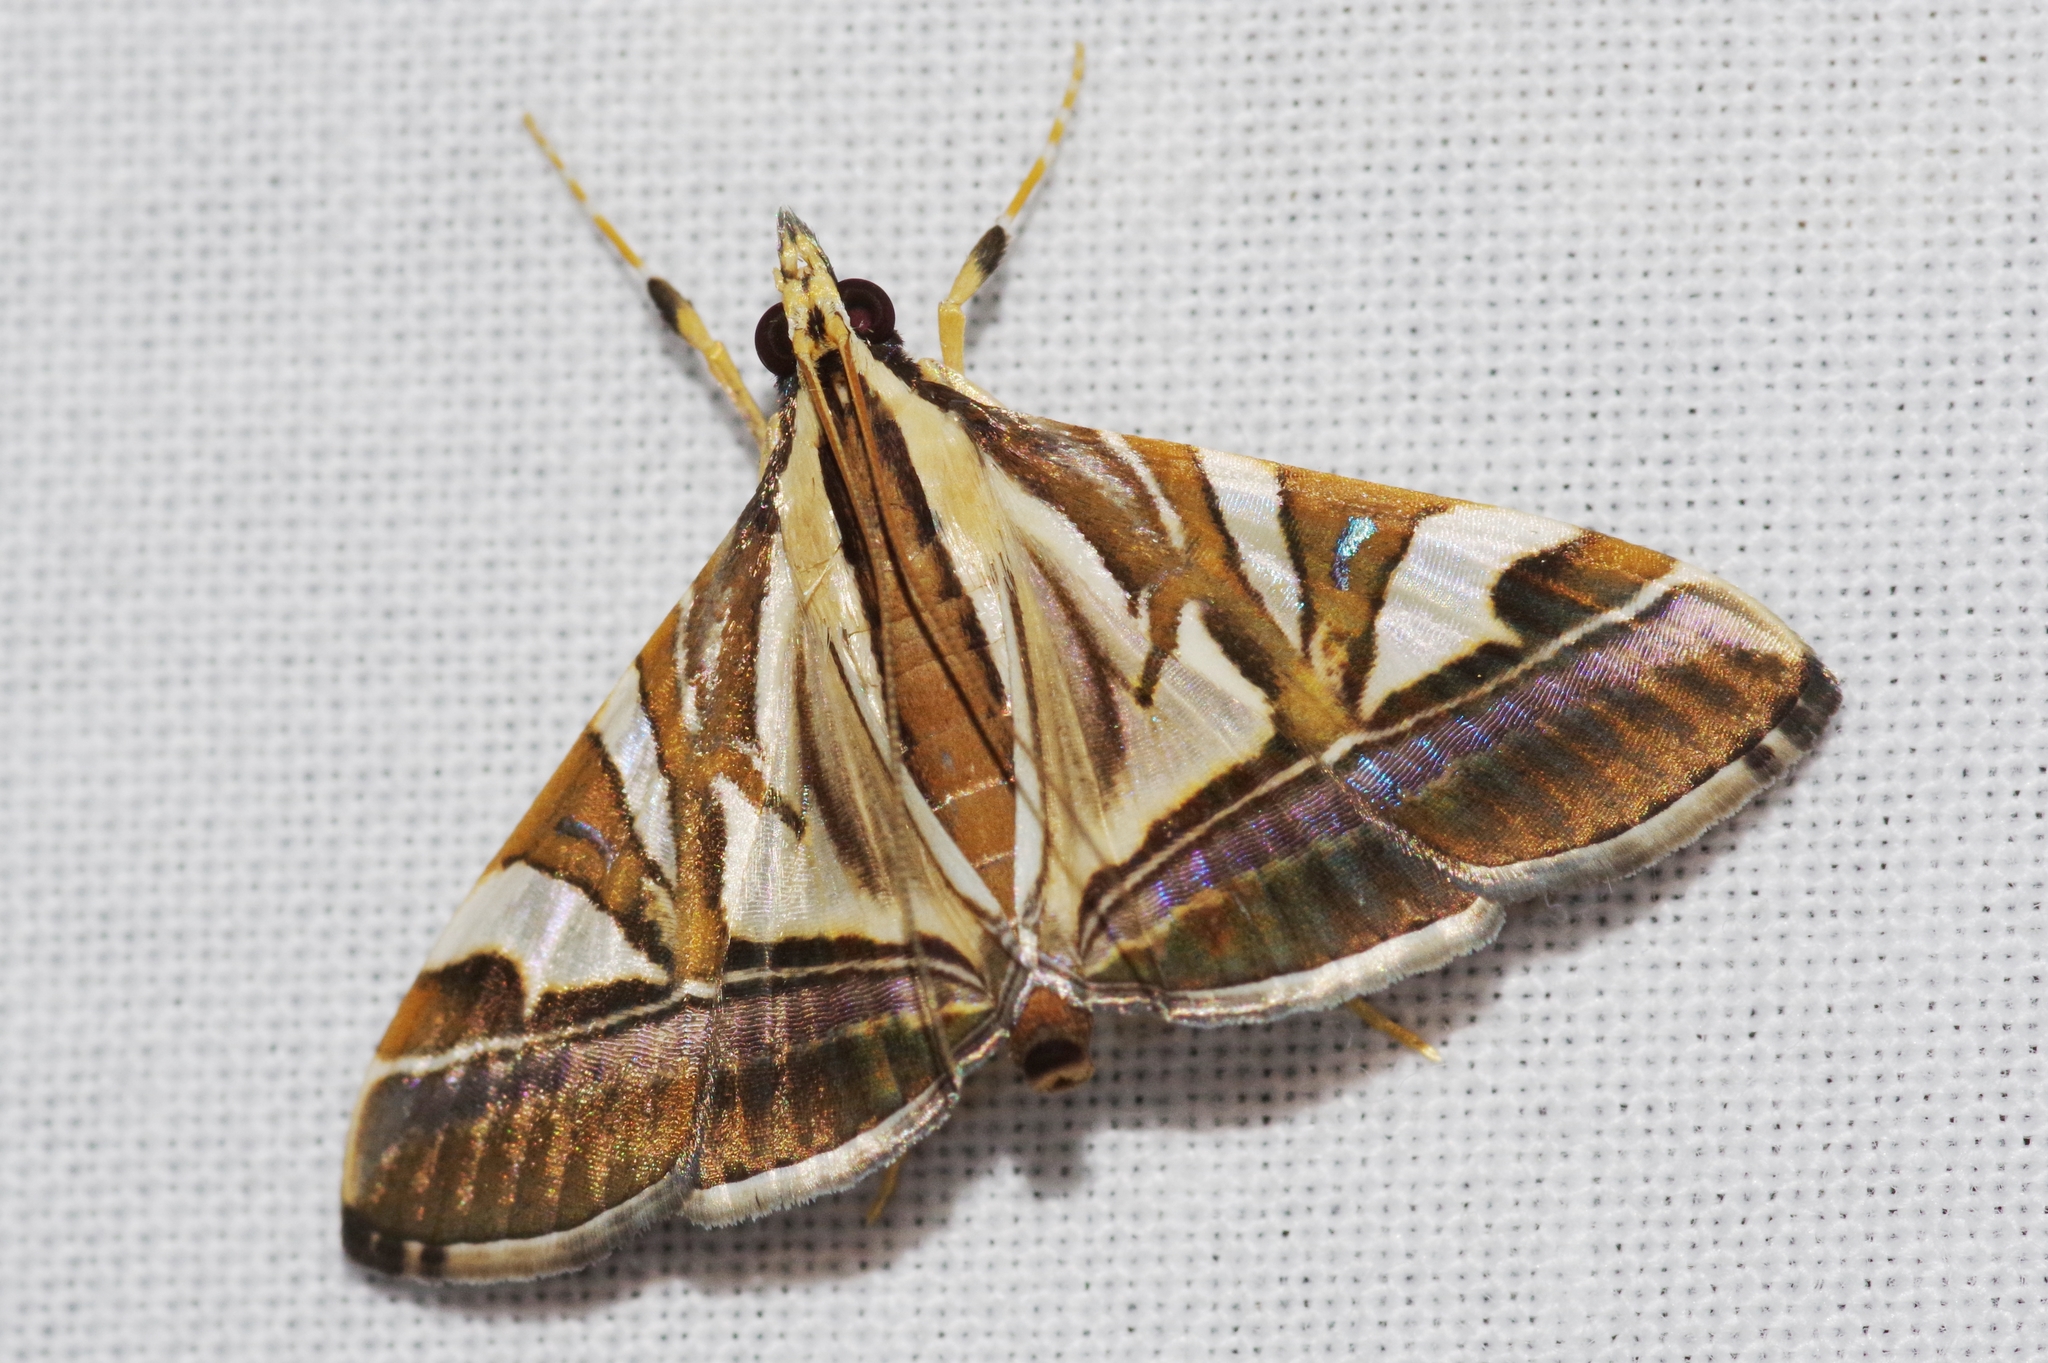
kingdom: Animalia
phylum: Arthropoda
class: Insecta
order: Lepidoptera
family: Crambidae
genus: Agrioglypta
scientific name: Agrioglypta itysalis
